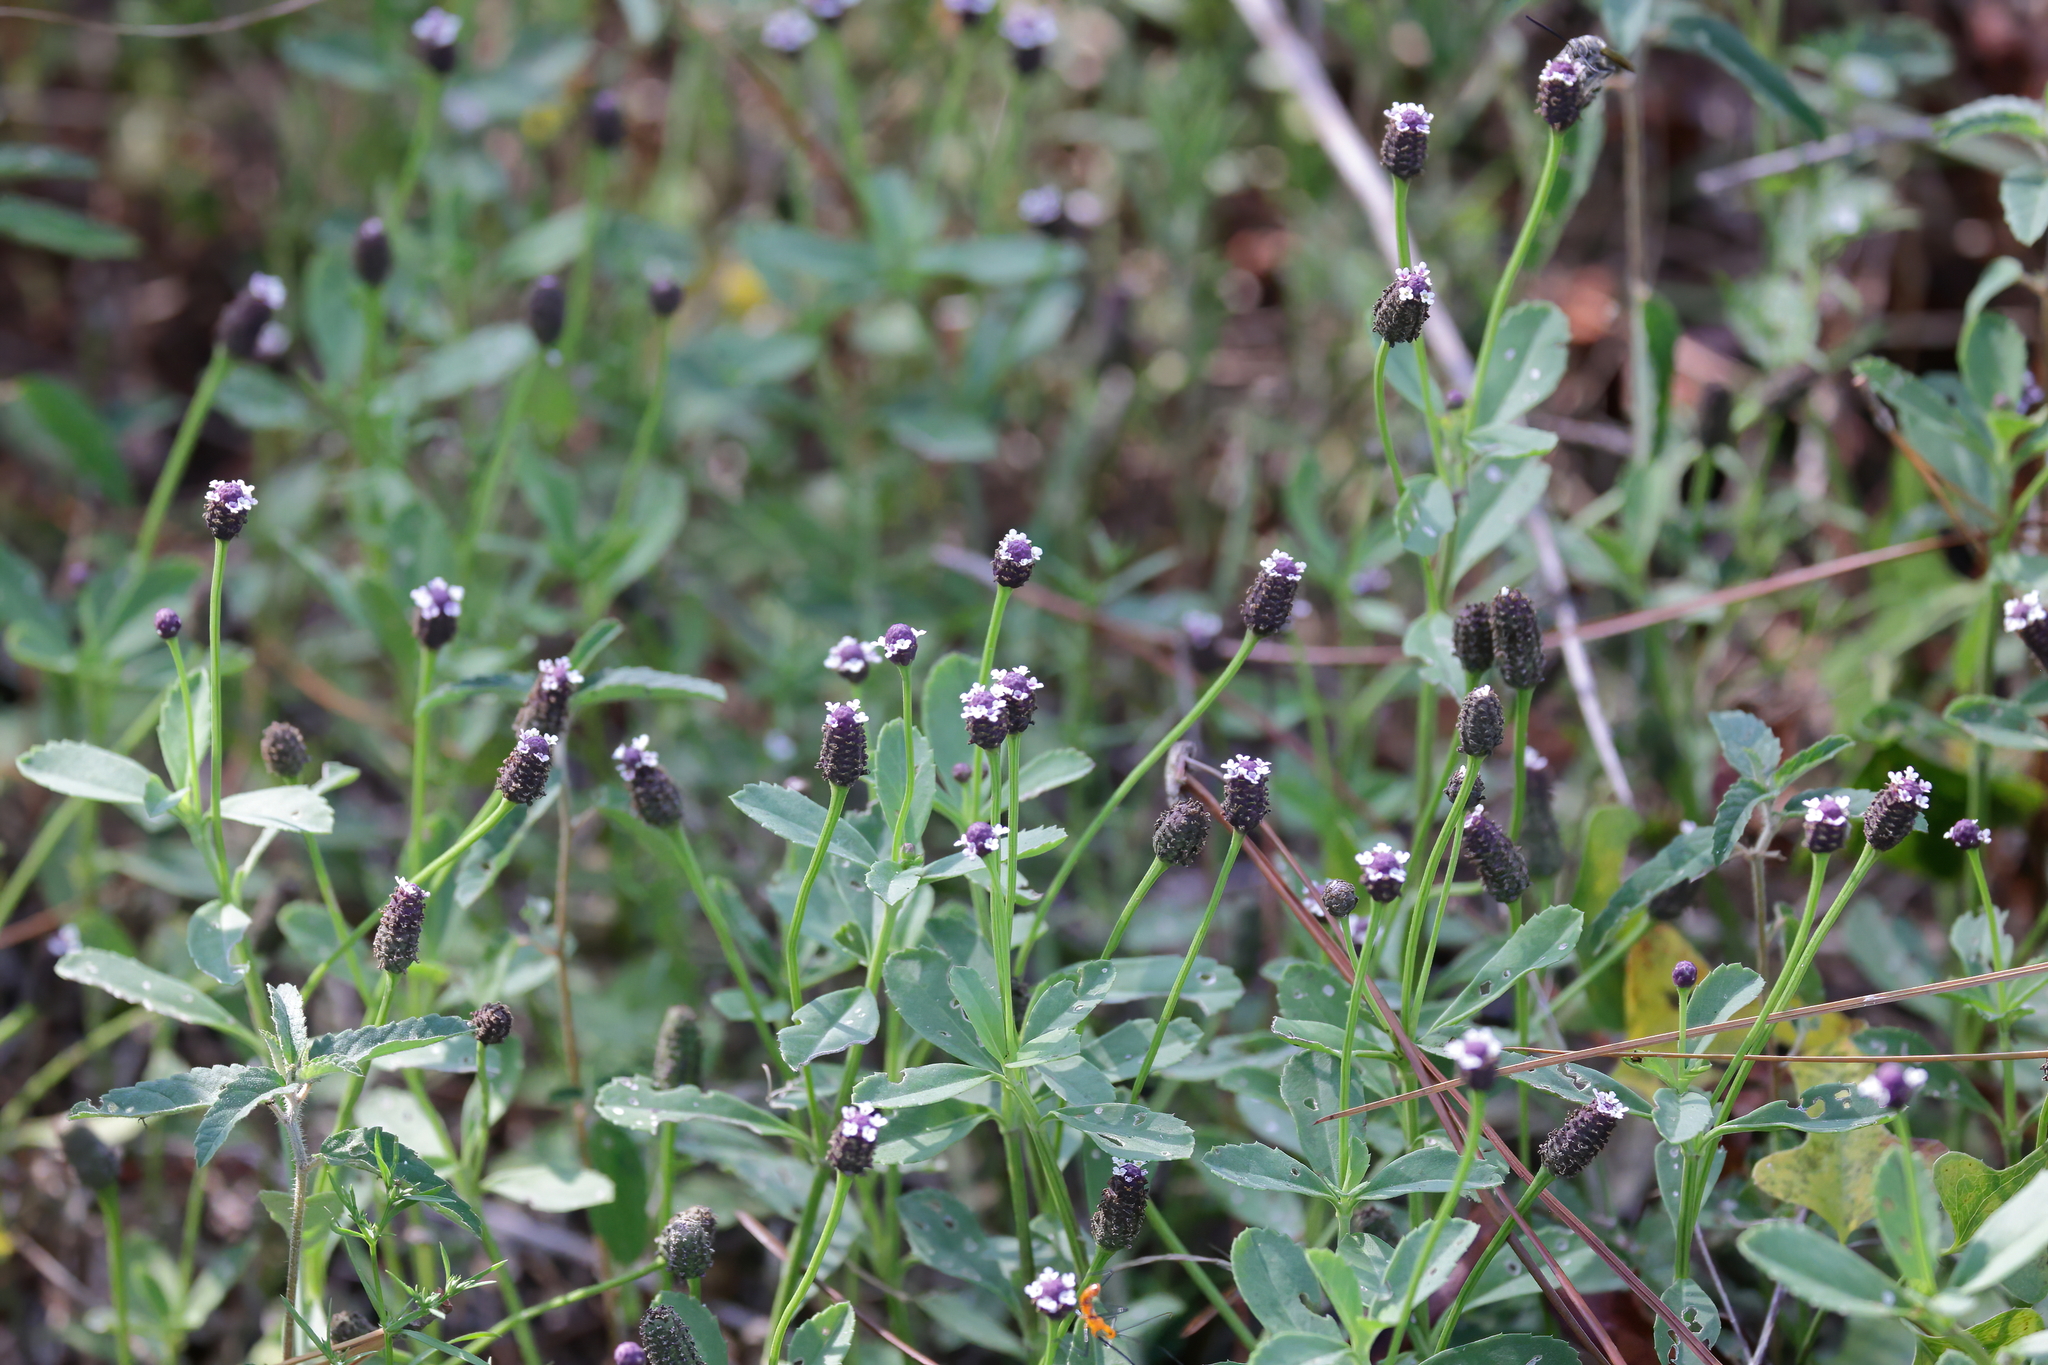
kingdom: Plantae
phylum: Tracheophyta
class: Magnoliopsida
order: Lamiales
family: Verbenaceae
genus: Phyla
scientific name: Phyla nodiflora
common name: Frogfruit
